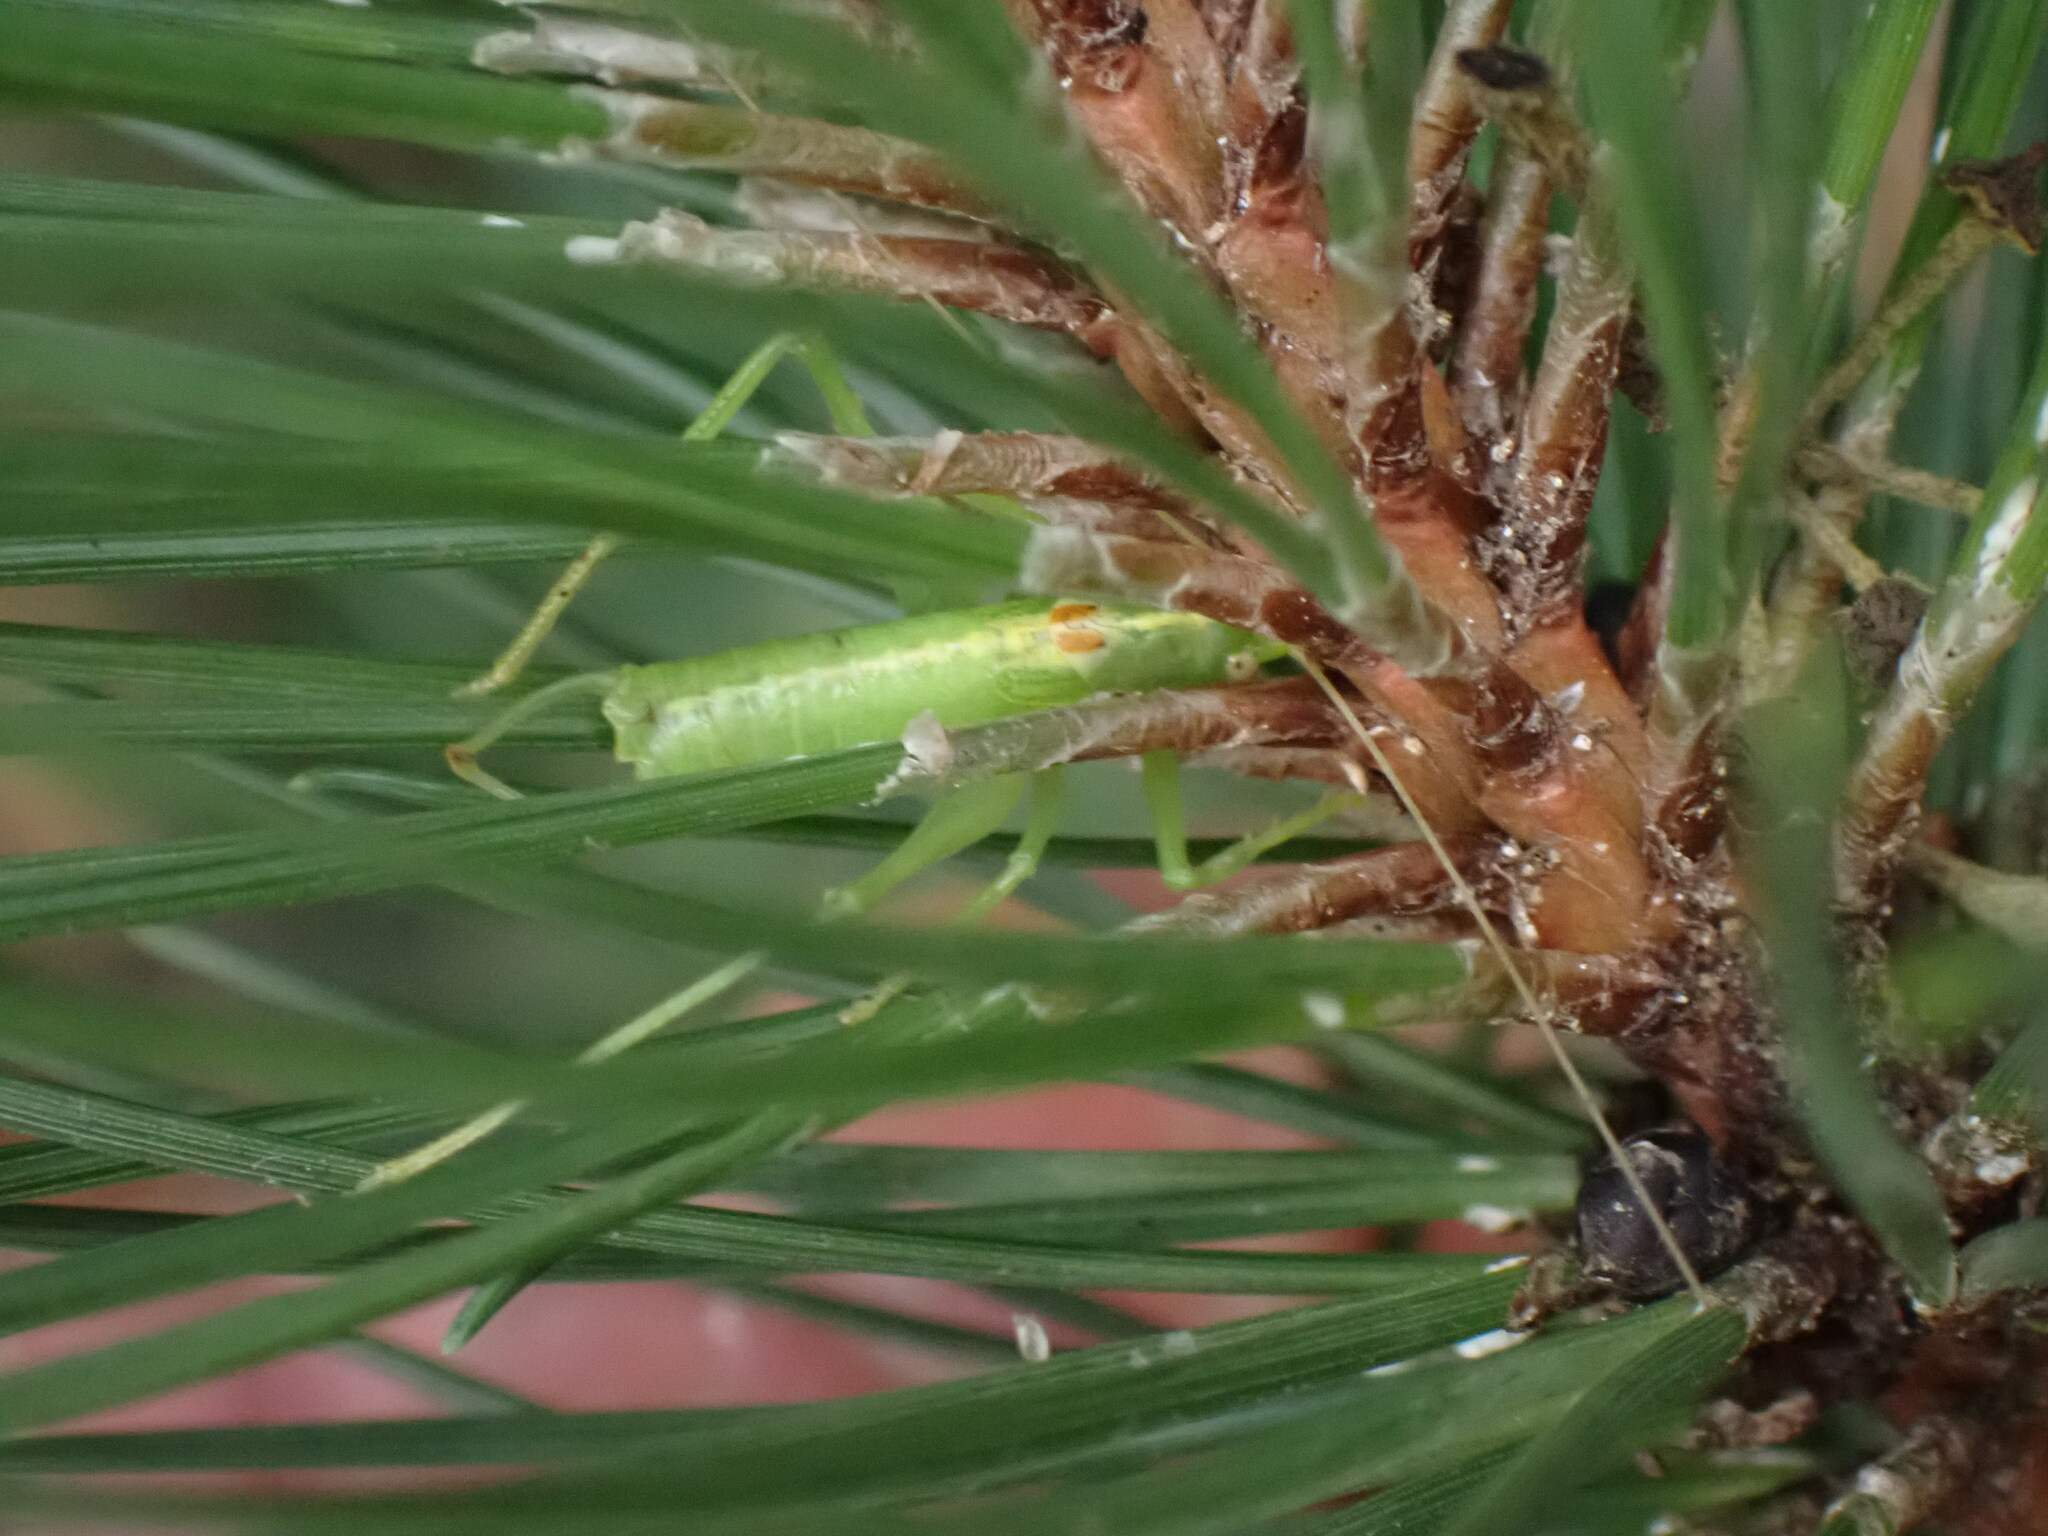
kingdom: Animalia
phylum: Arthropoda
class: Insecta
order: Orthoptera
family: Tettigoniidae
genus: Meconema
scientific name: Meconema meridionale
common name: Southern oak bush-cricket
